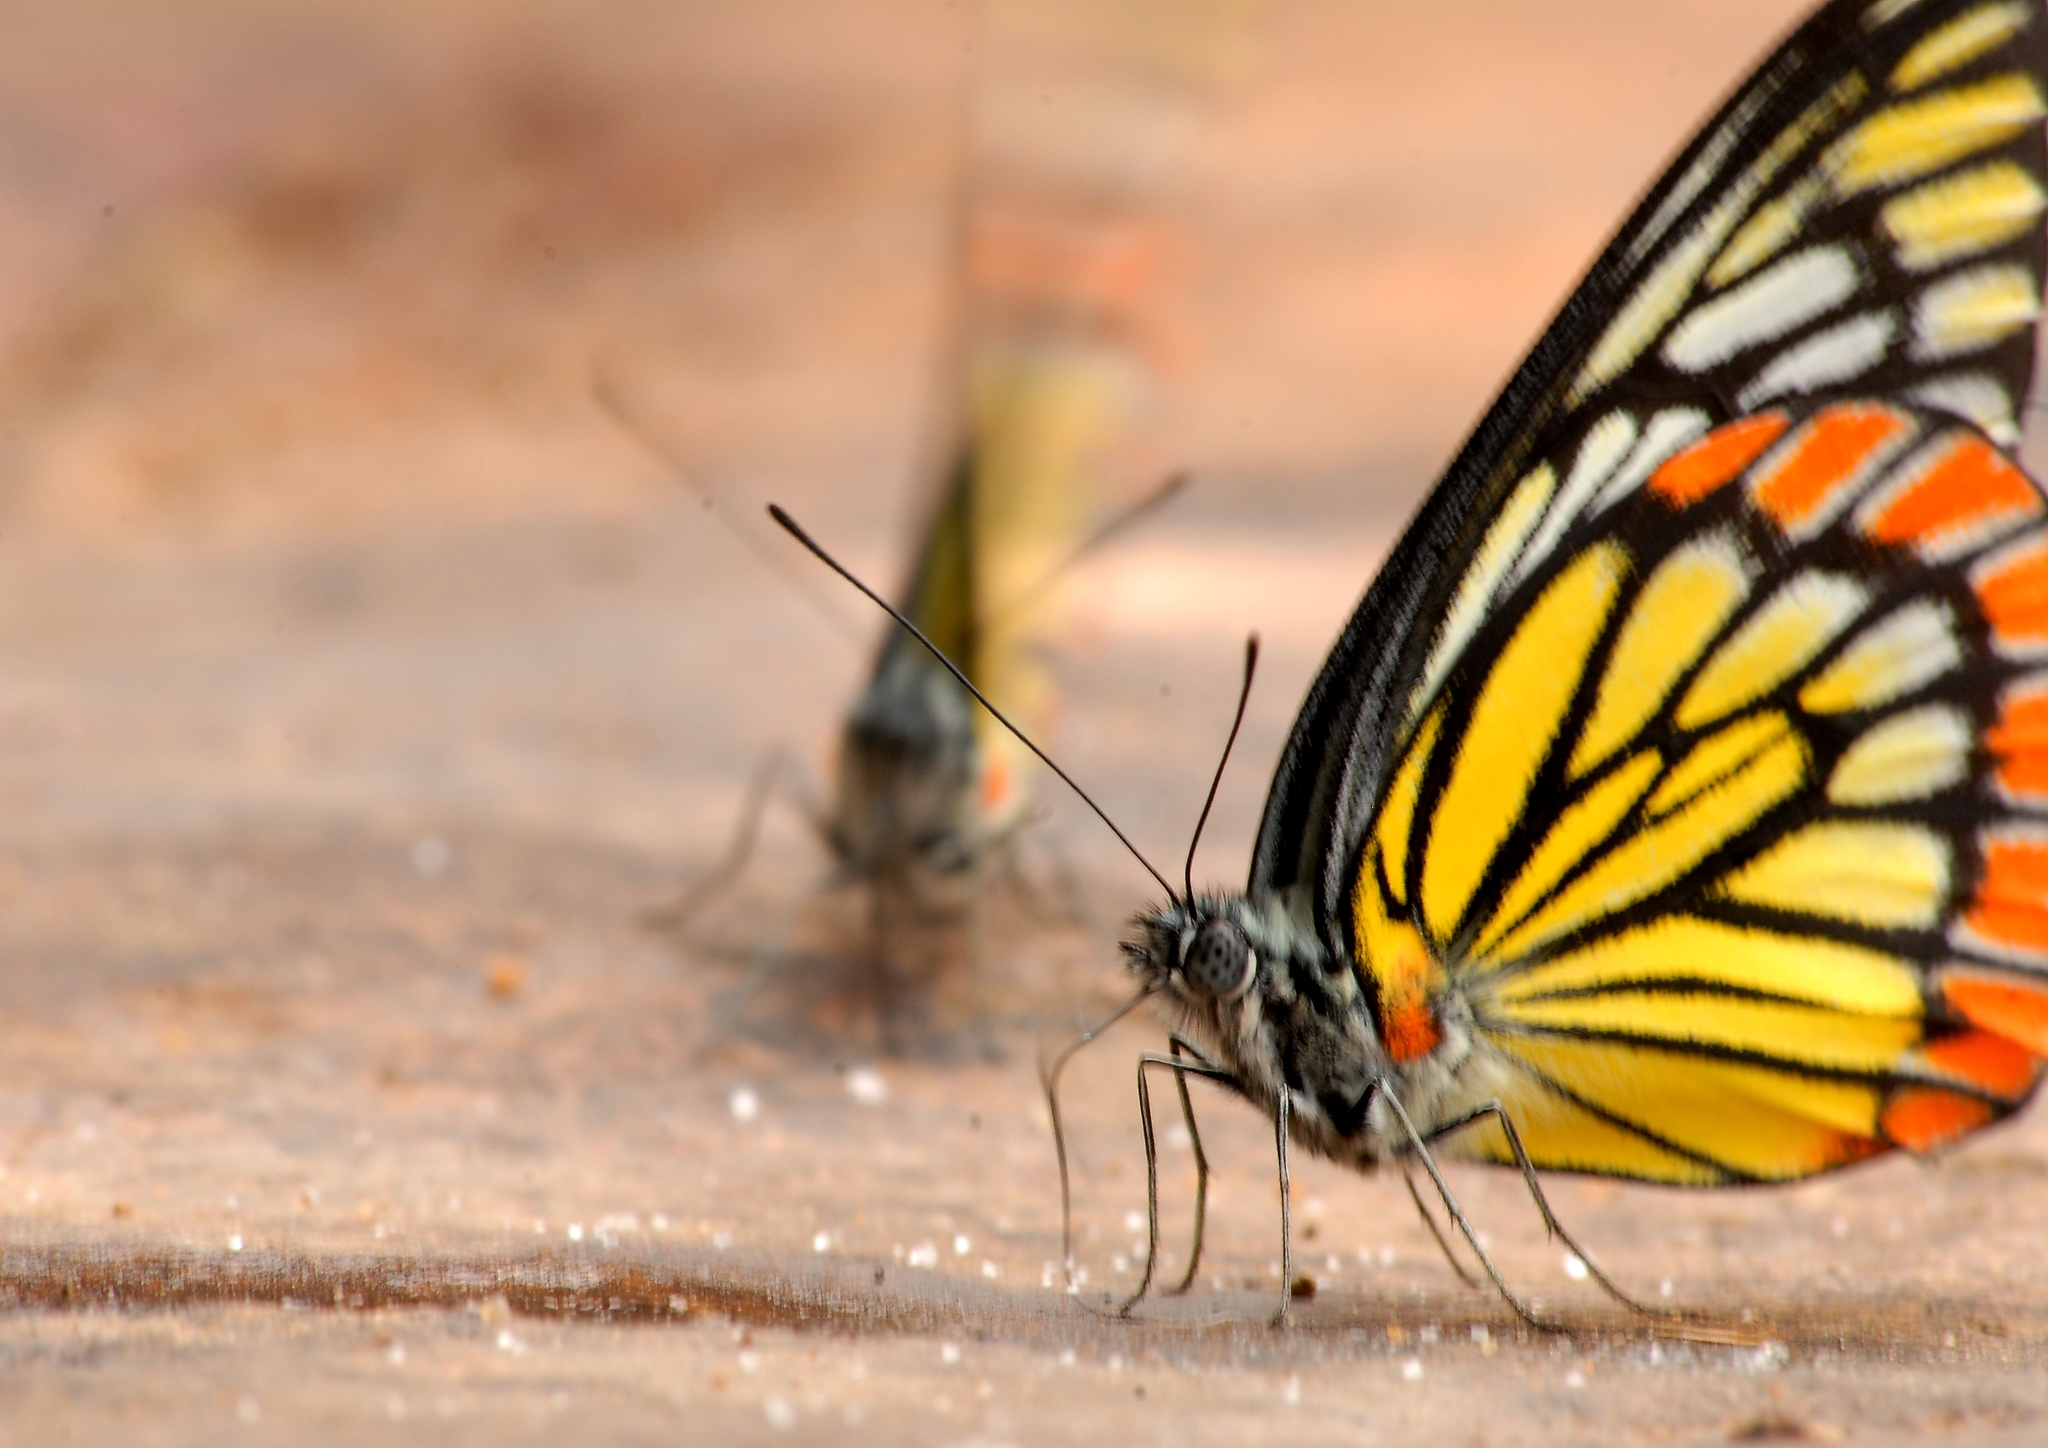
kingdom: Animalia
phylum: Arthropoda
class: Insecta
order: Lepidoptera
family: Pieridae
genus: Prioneris
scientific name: Prioneris sita
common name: Painted sawtooth
